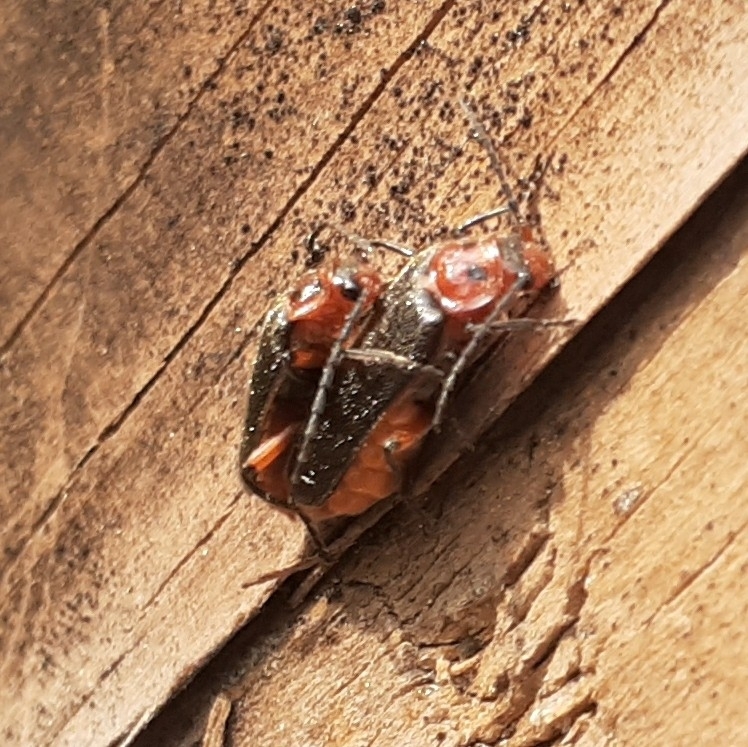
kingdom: Animalia
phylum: Arthropoda
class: Insecta
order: Coleoptera
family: Cantharidae
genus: Atalantycha
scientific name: Atalantycha bilineata
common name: Two-lined leatherwing
